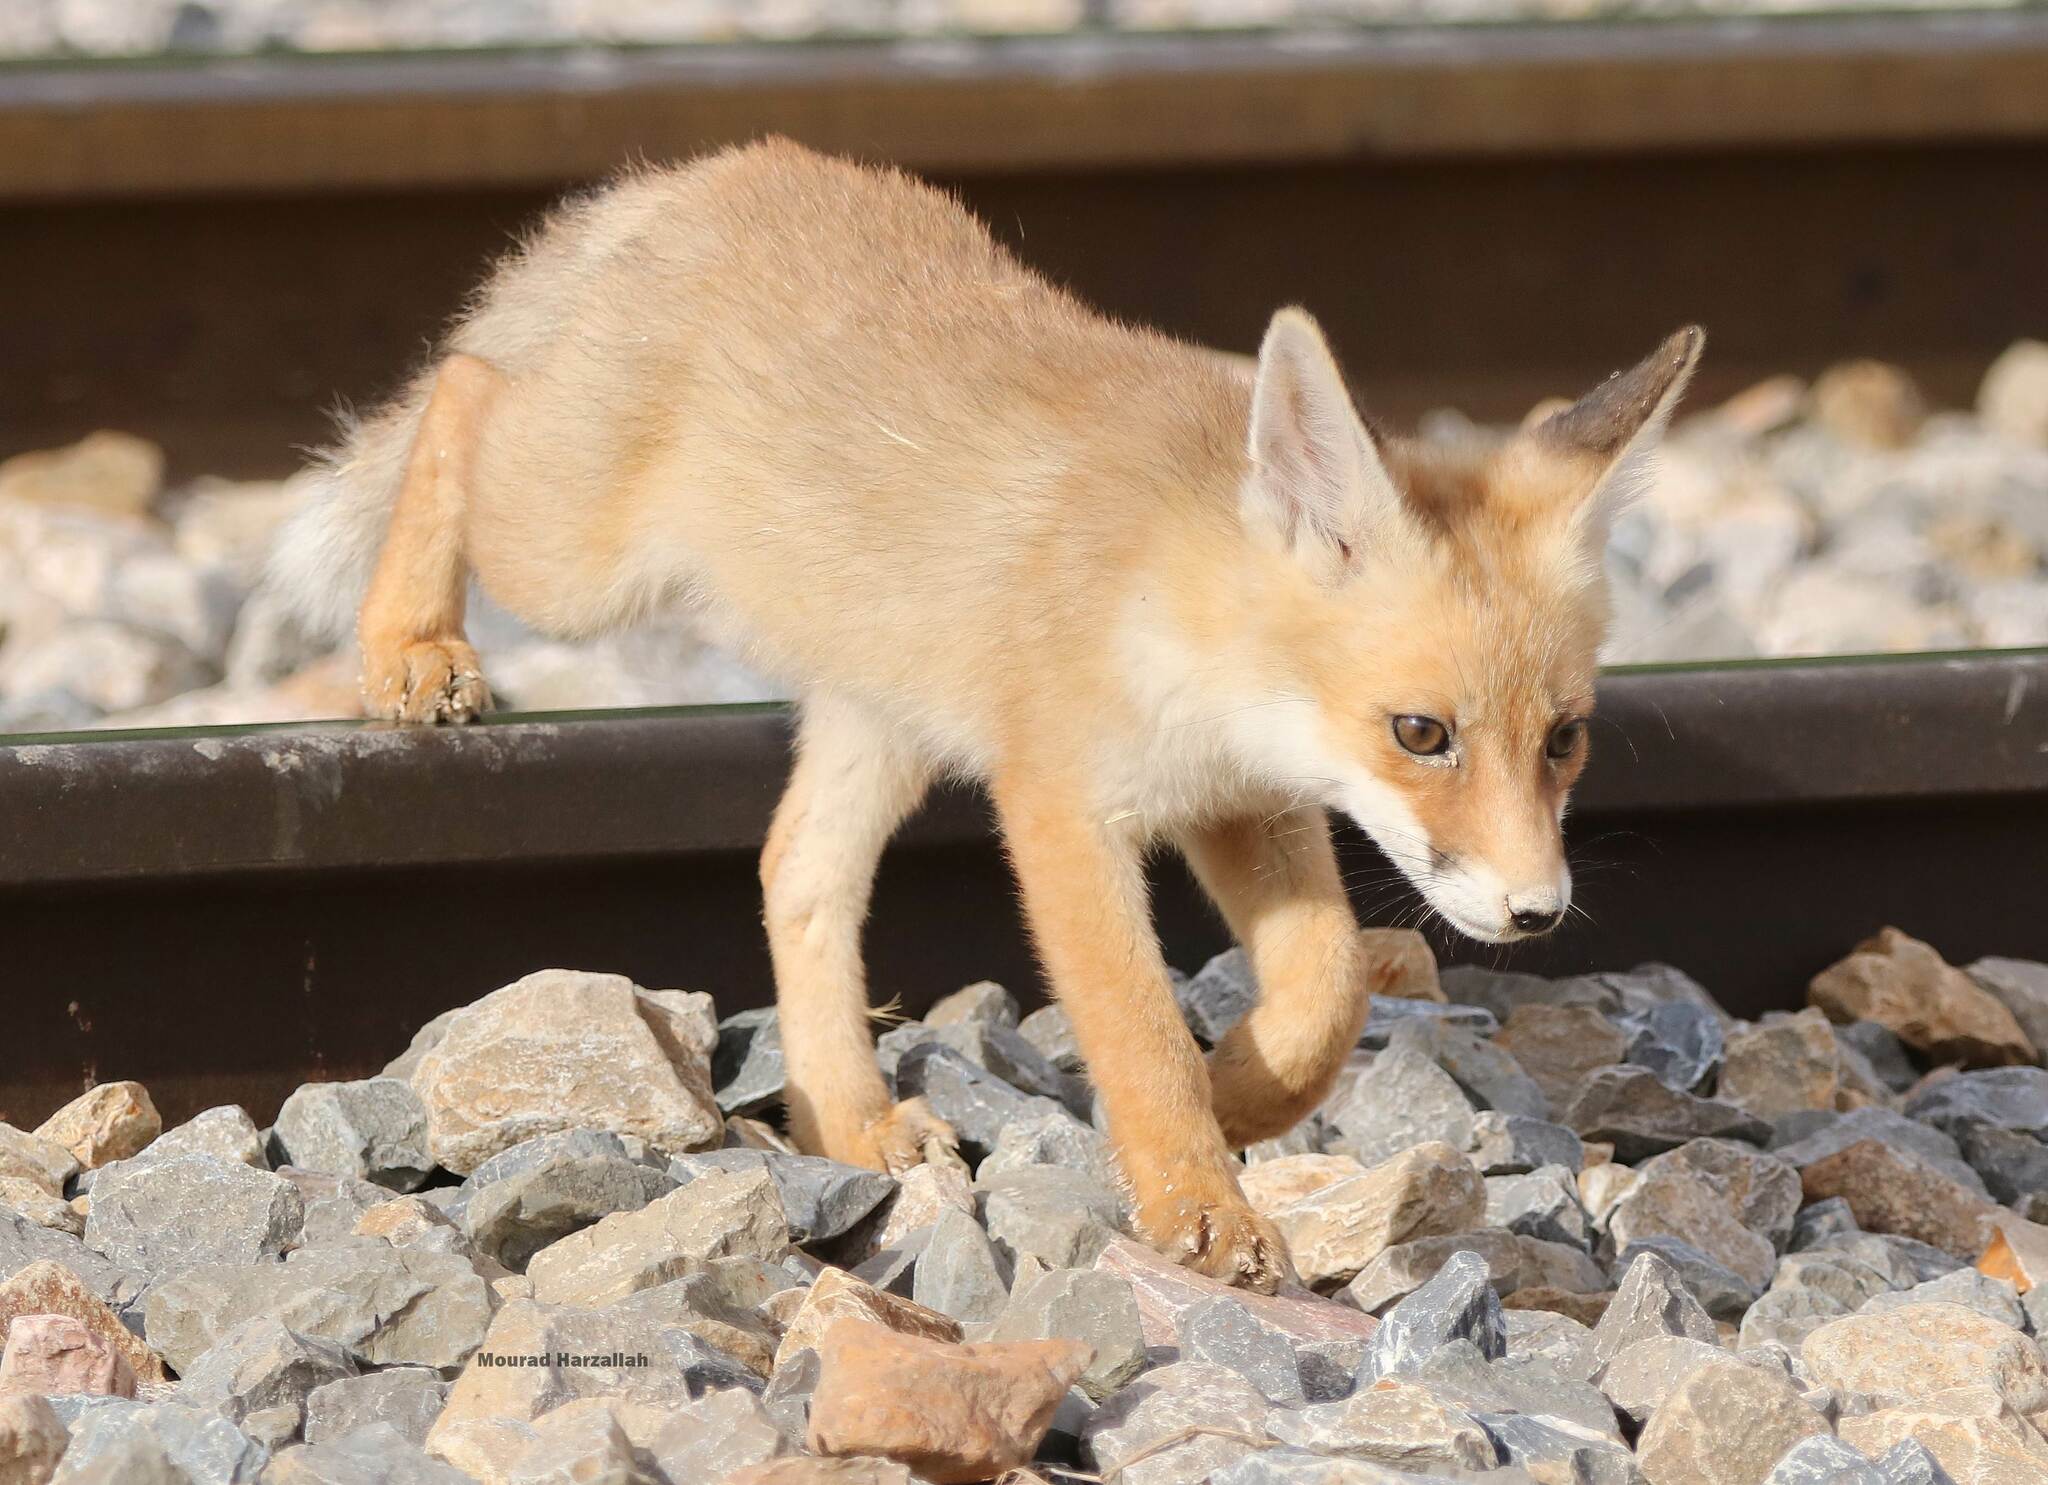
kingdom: Animalia
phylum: Chordata
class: Mammalia
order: Carnivora
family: Canidae
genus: Vulpes
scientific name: Vulpes vulpes
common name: Red fox
